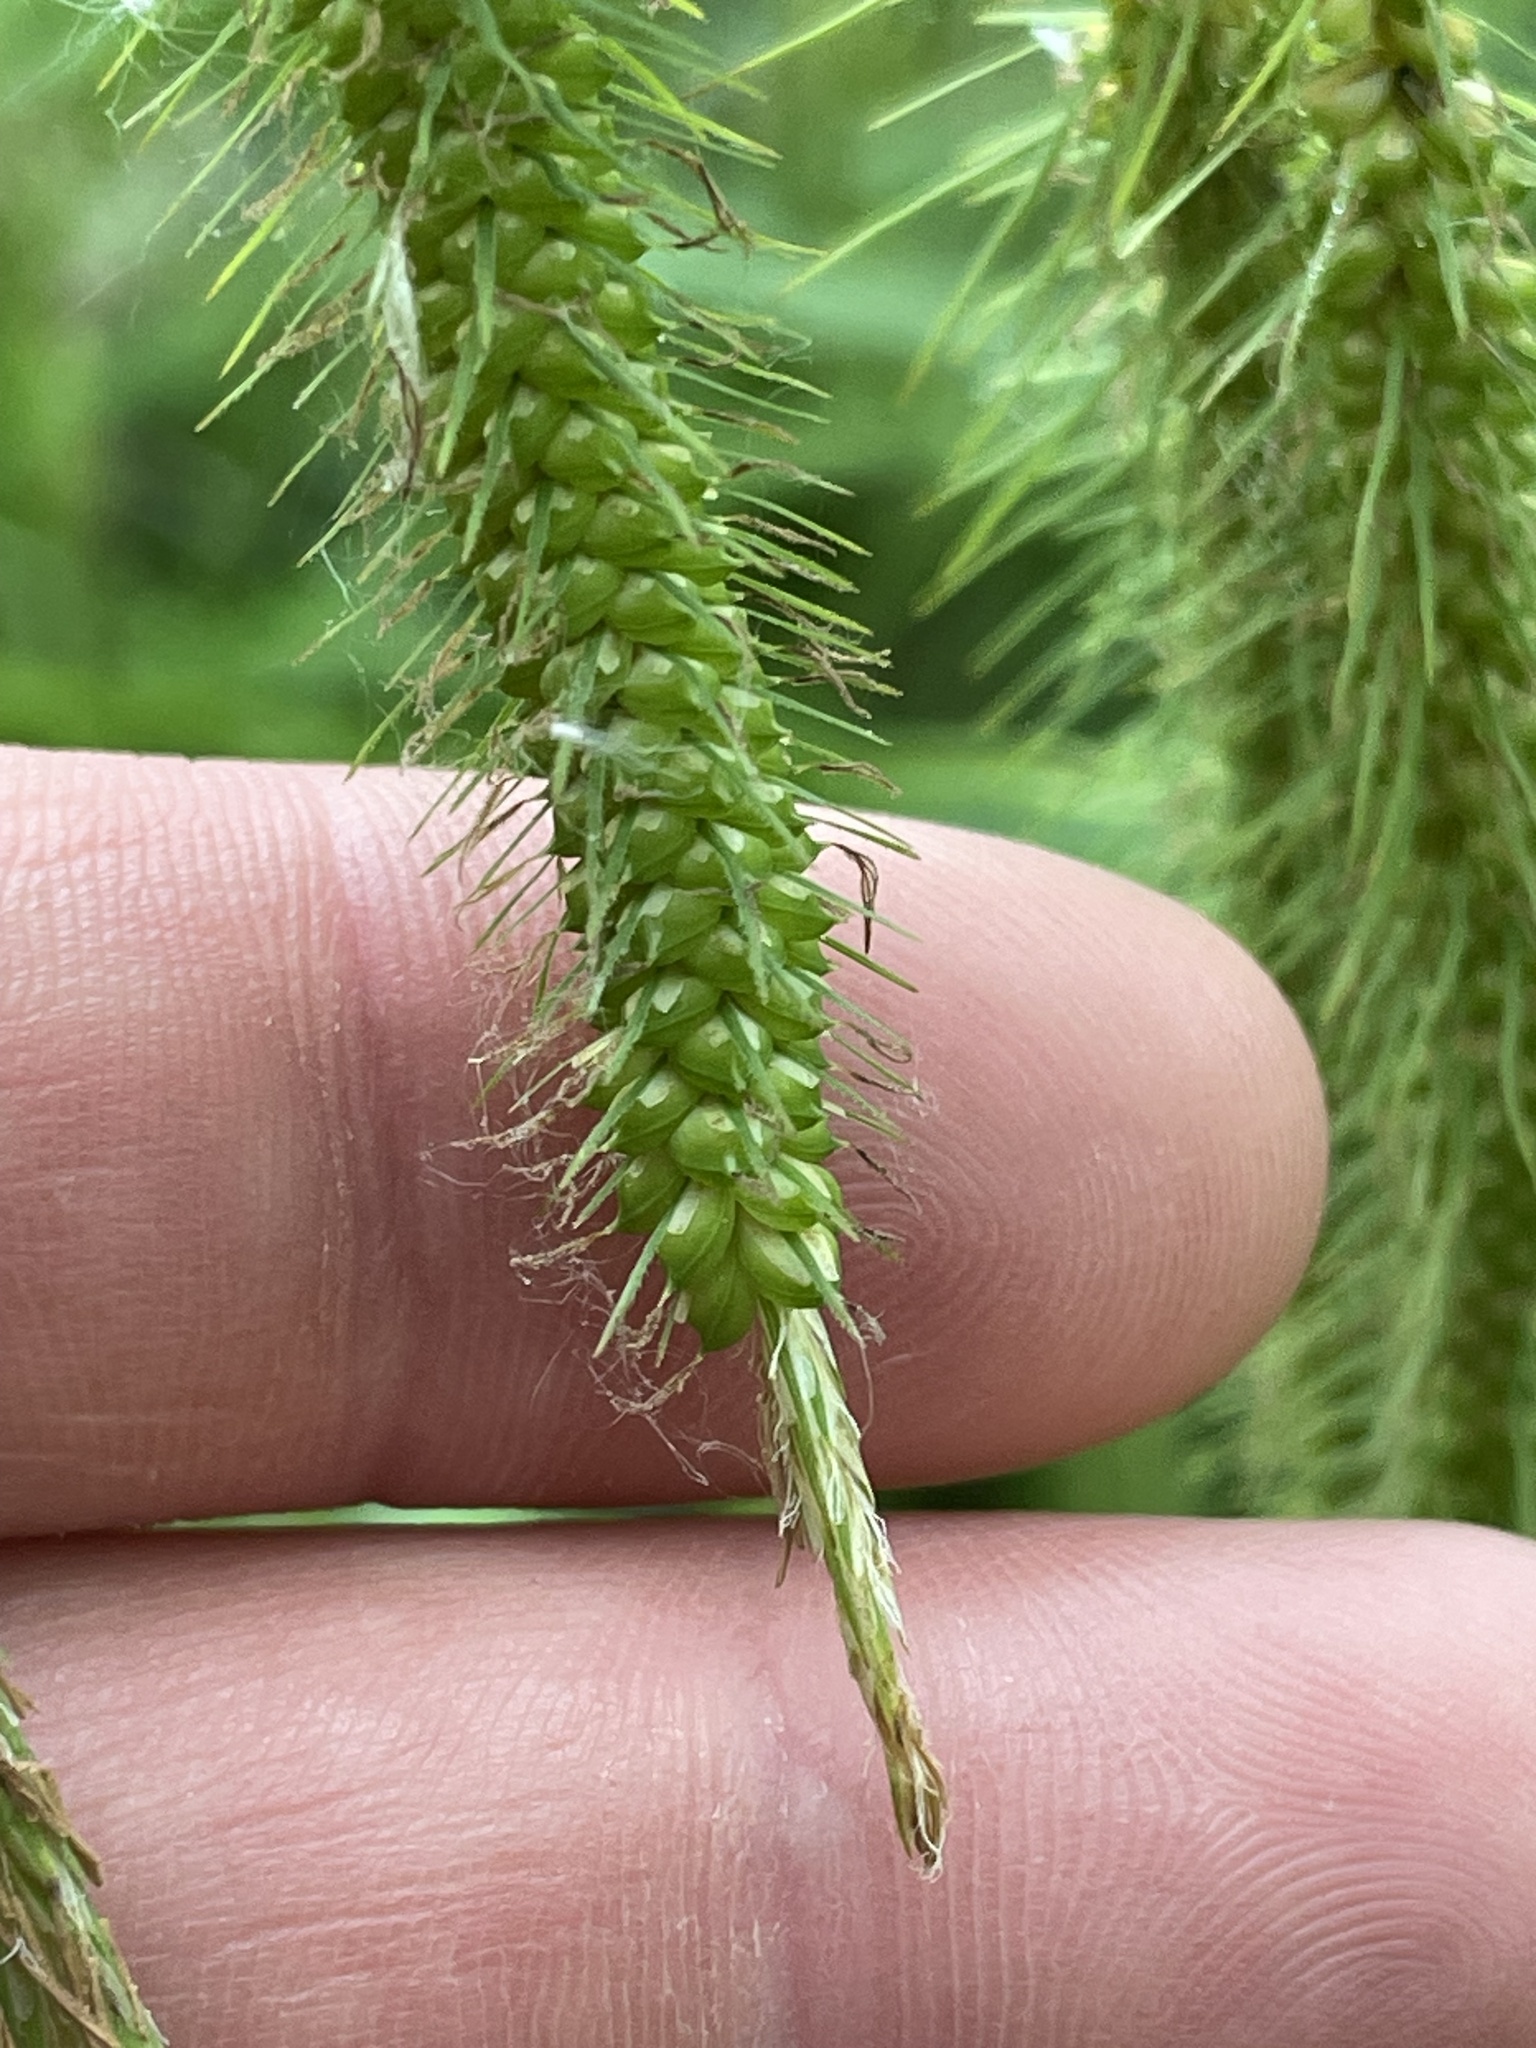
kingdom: Plantae
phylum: Tracheophyta
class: Liliopsida
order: Poales
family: Cyperaceae
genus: Carex
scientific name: Carex crinita
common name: Fringed sedge
